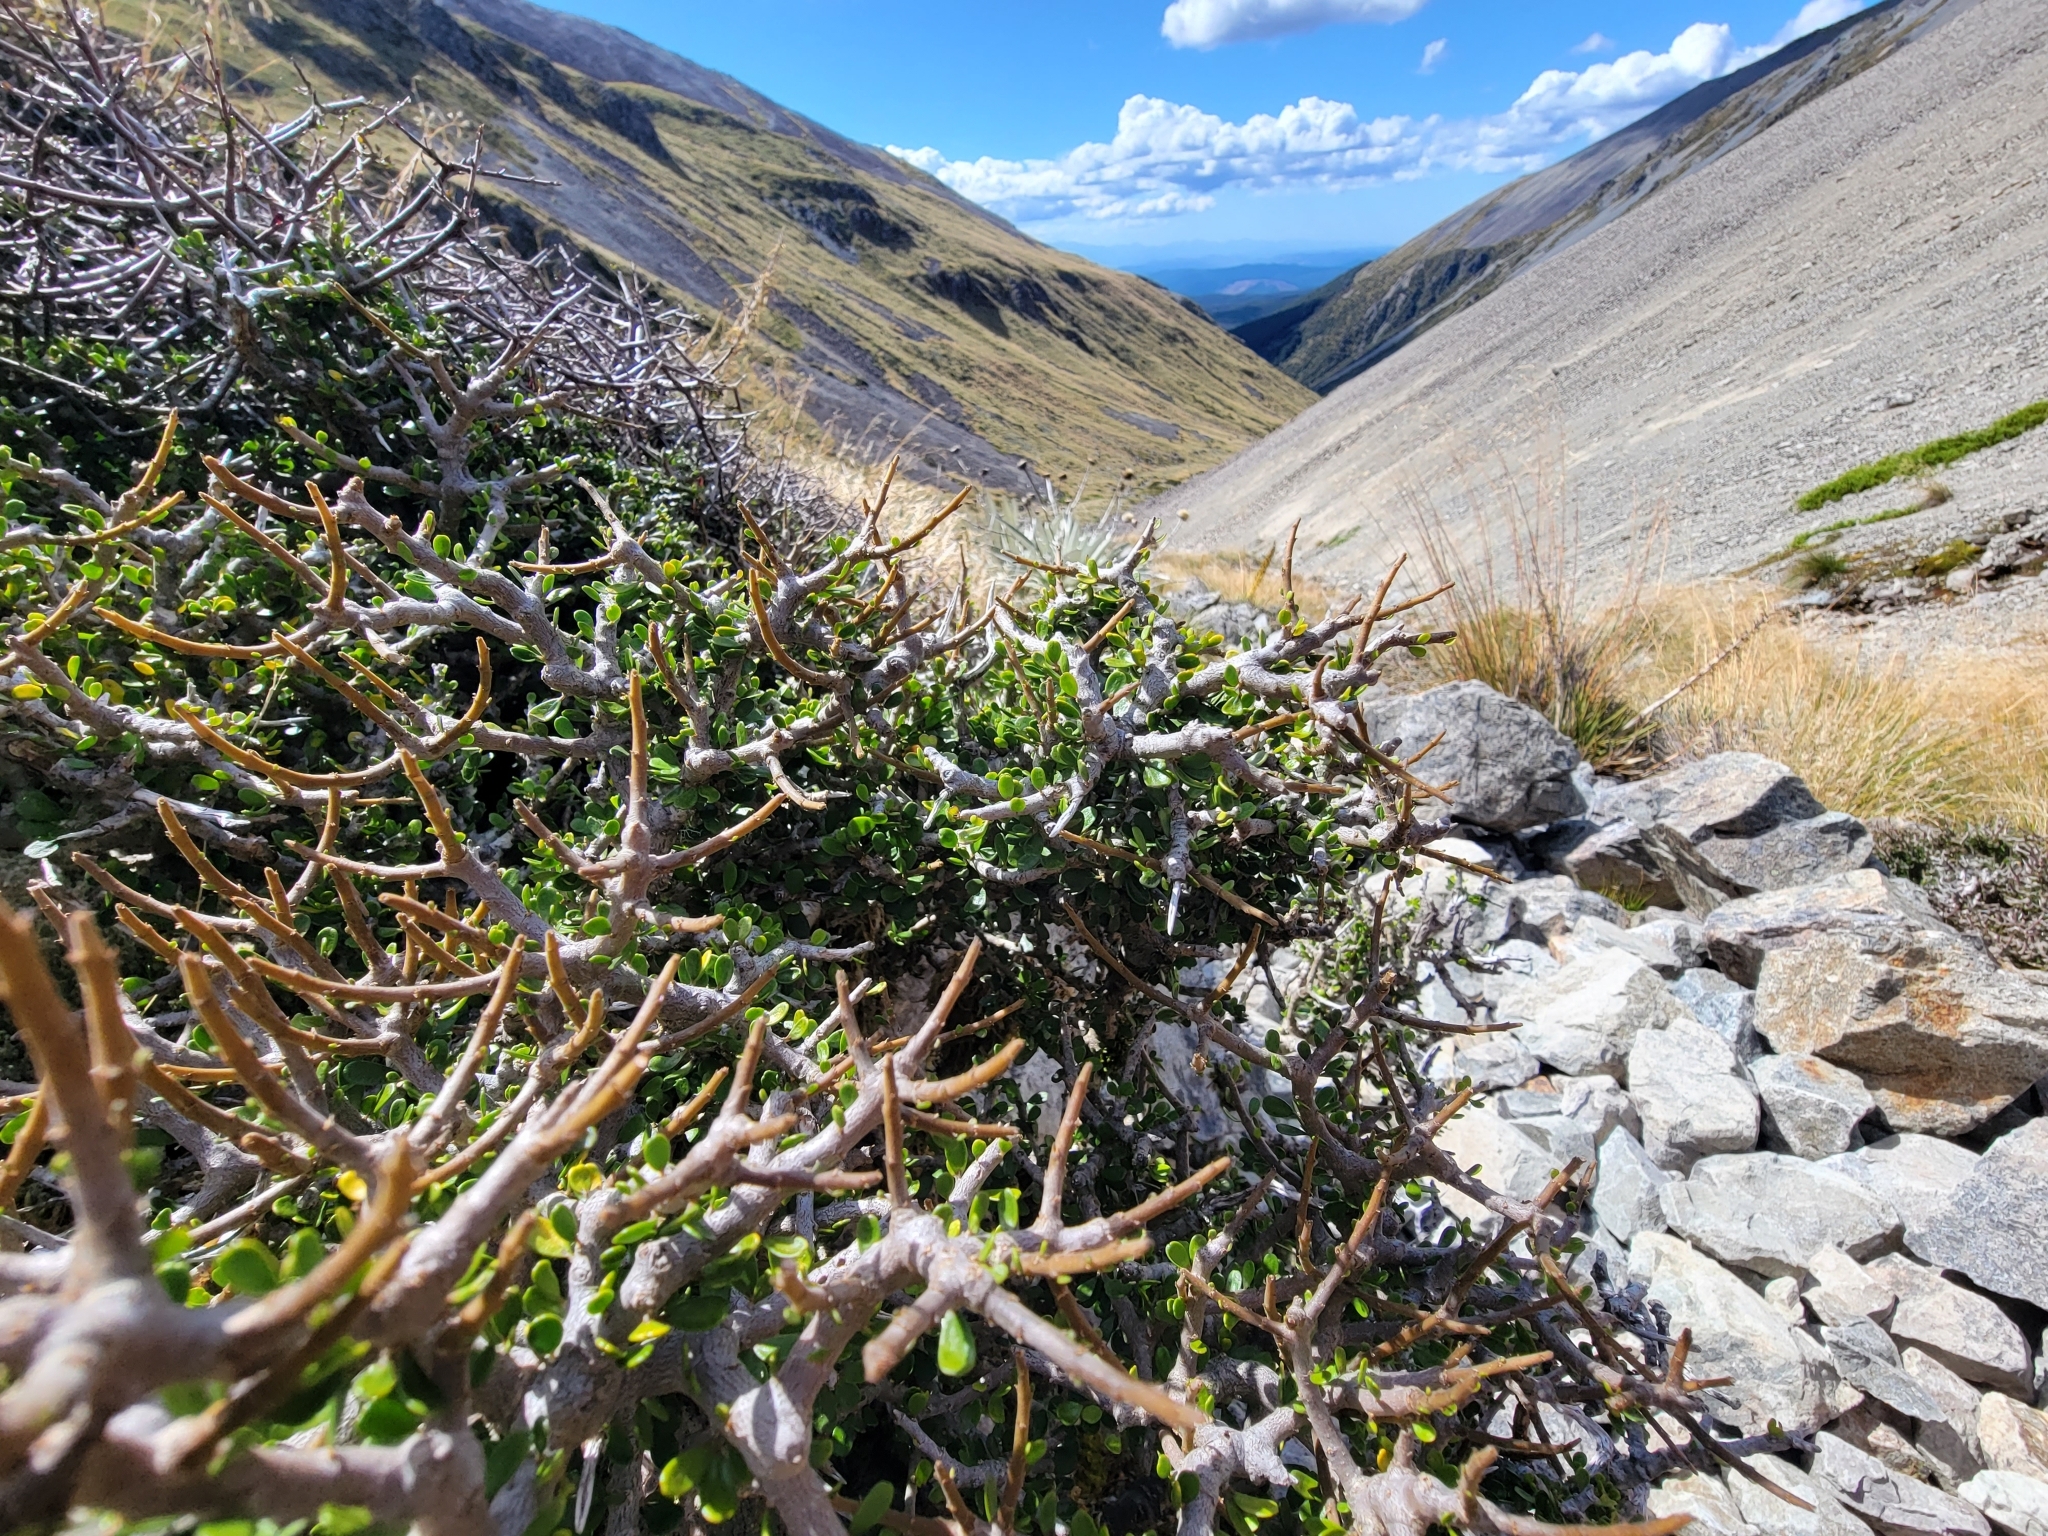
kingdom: Plantae
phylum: Tracheophyta
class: Magnoliopsida
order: Malpighiales
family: Violaceae
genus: Melicytus
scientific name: Melicytus alpinus
